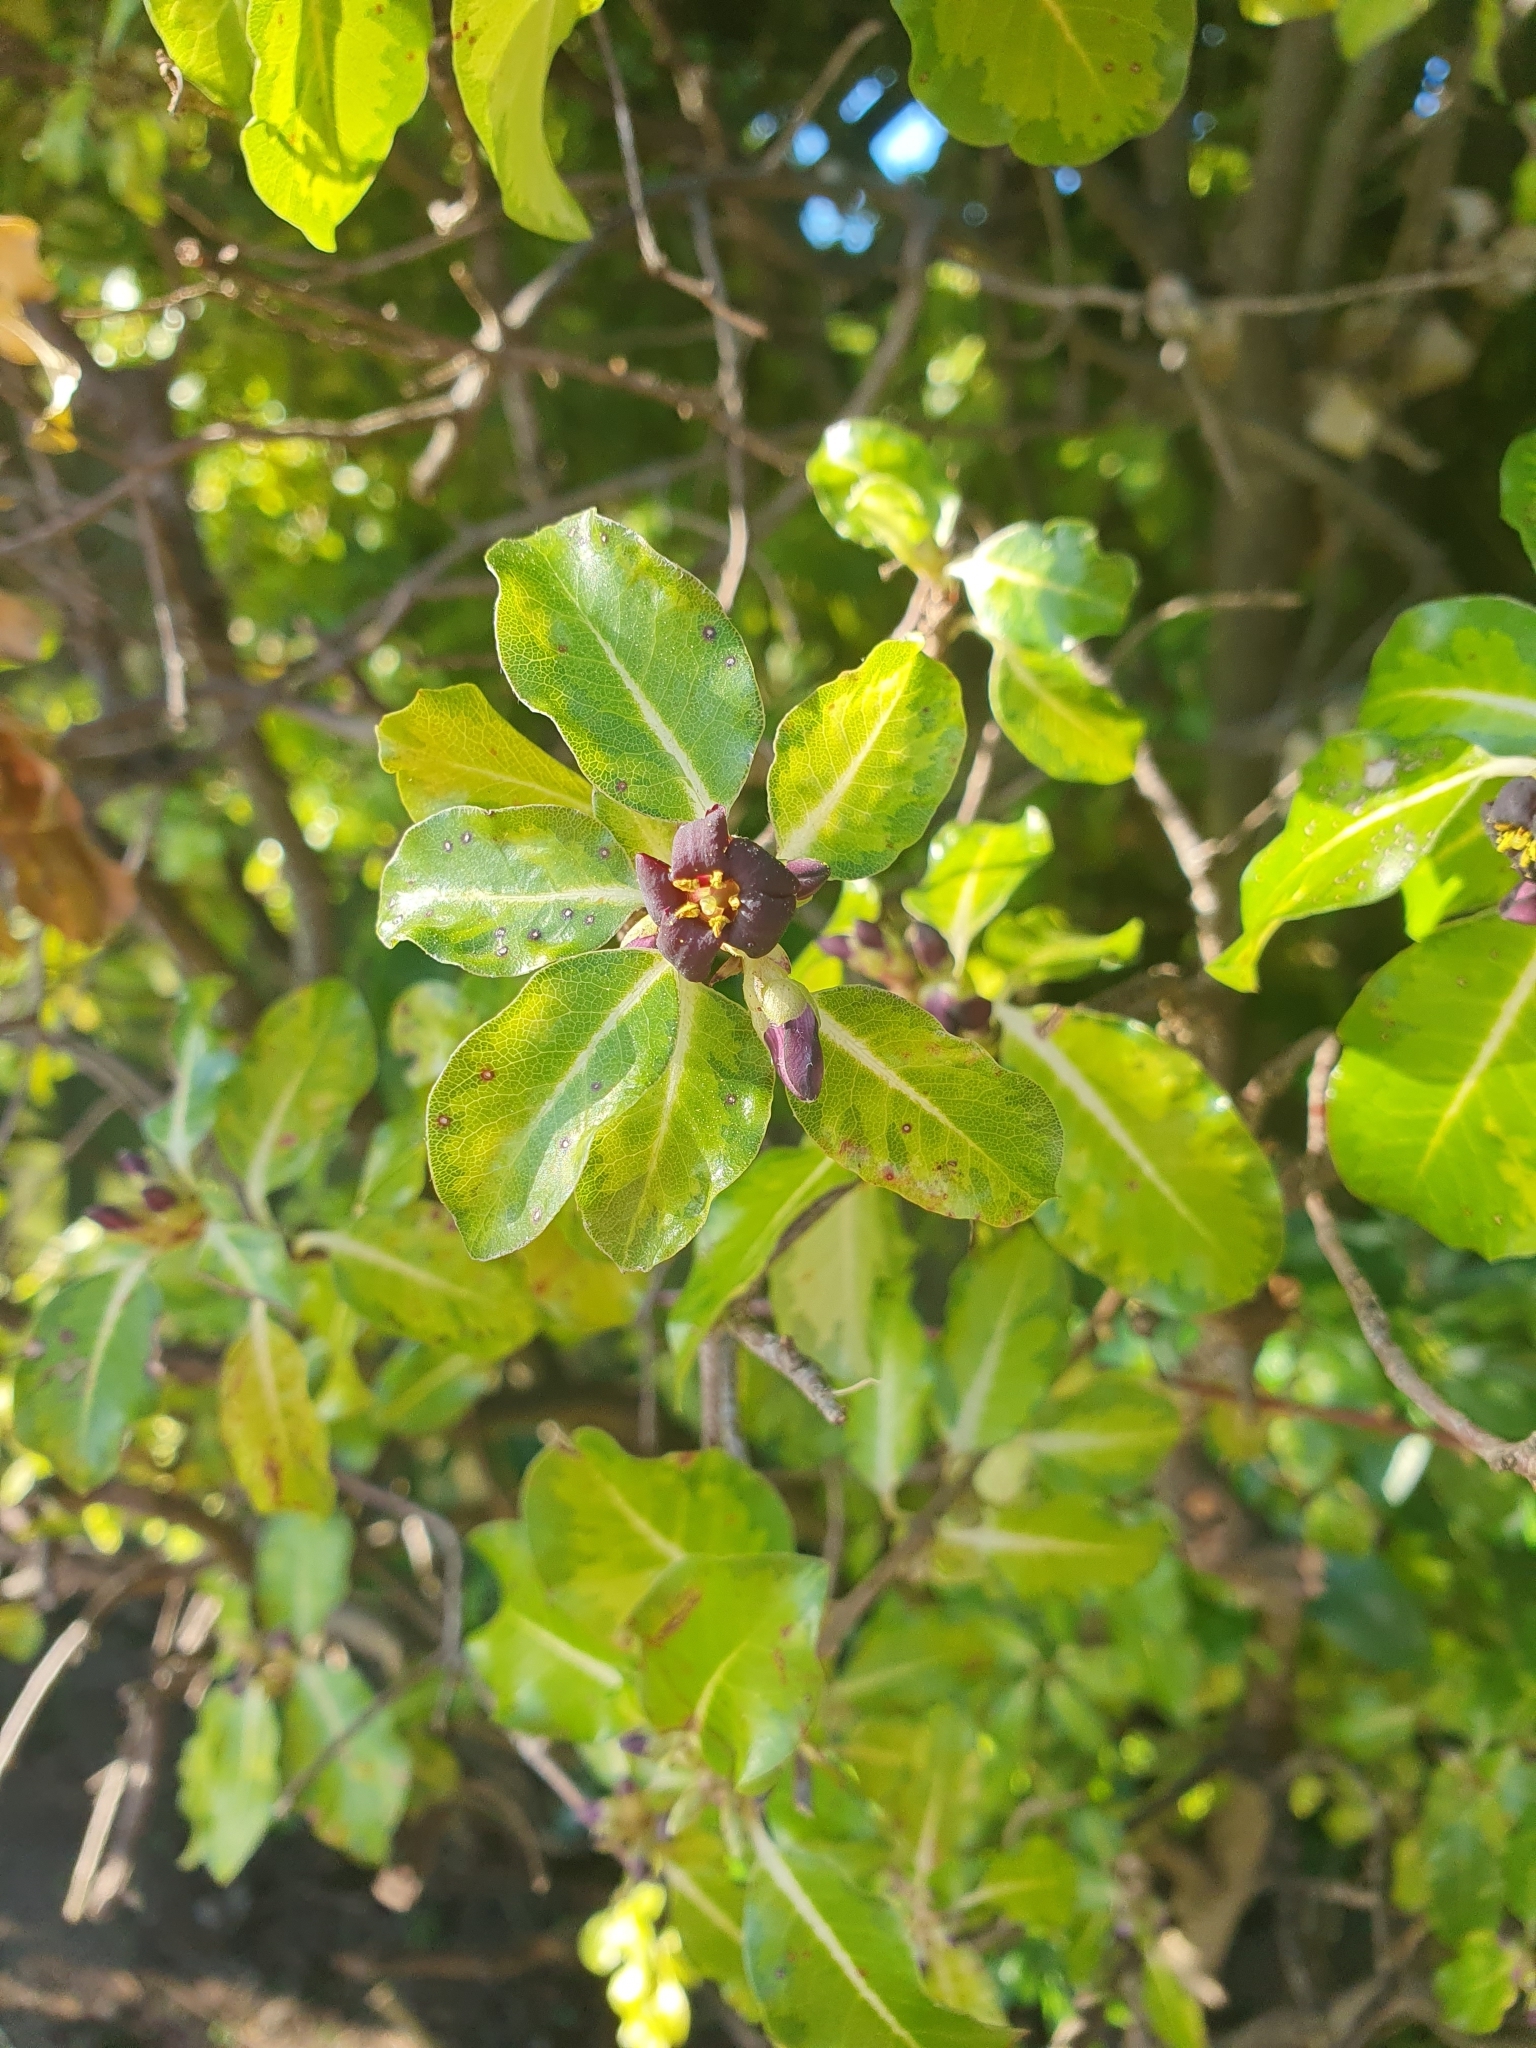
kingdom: Plantae
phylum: Tracheophyta
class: Magnoliopsida
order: Apiales
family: Pittosporaceae
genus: Pittosporum
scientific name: Pittosporum tenuifolium
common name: Kohuhu
